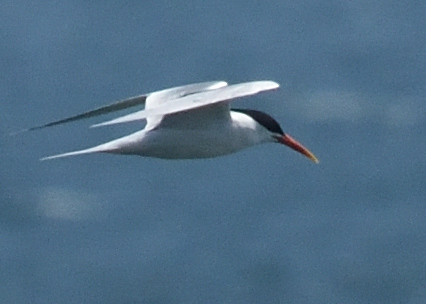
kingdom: Animalia
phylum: Chordata
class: Aves
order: Charadriiformes
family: Laridae
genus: Thalasseus
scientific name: Thalasseus elegans
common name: Elegant tern
